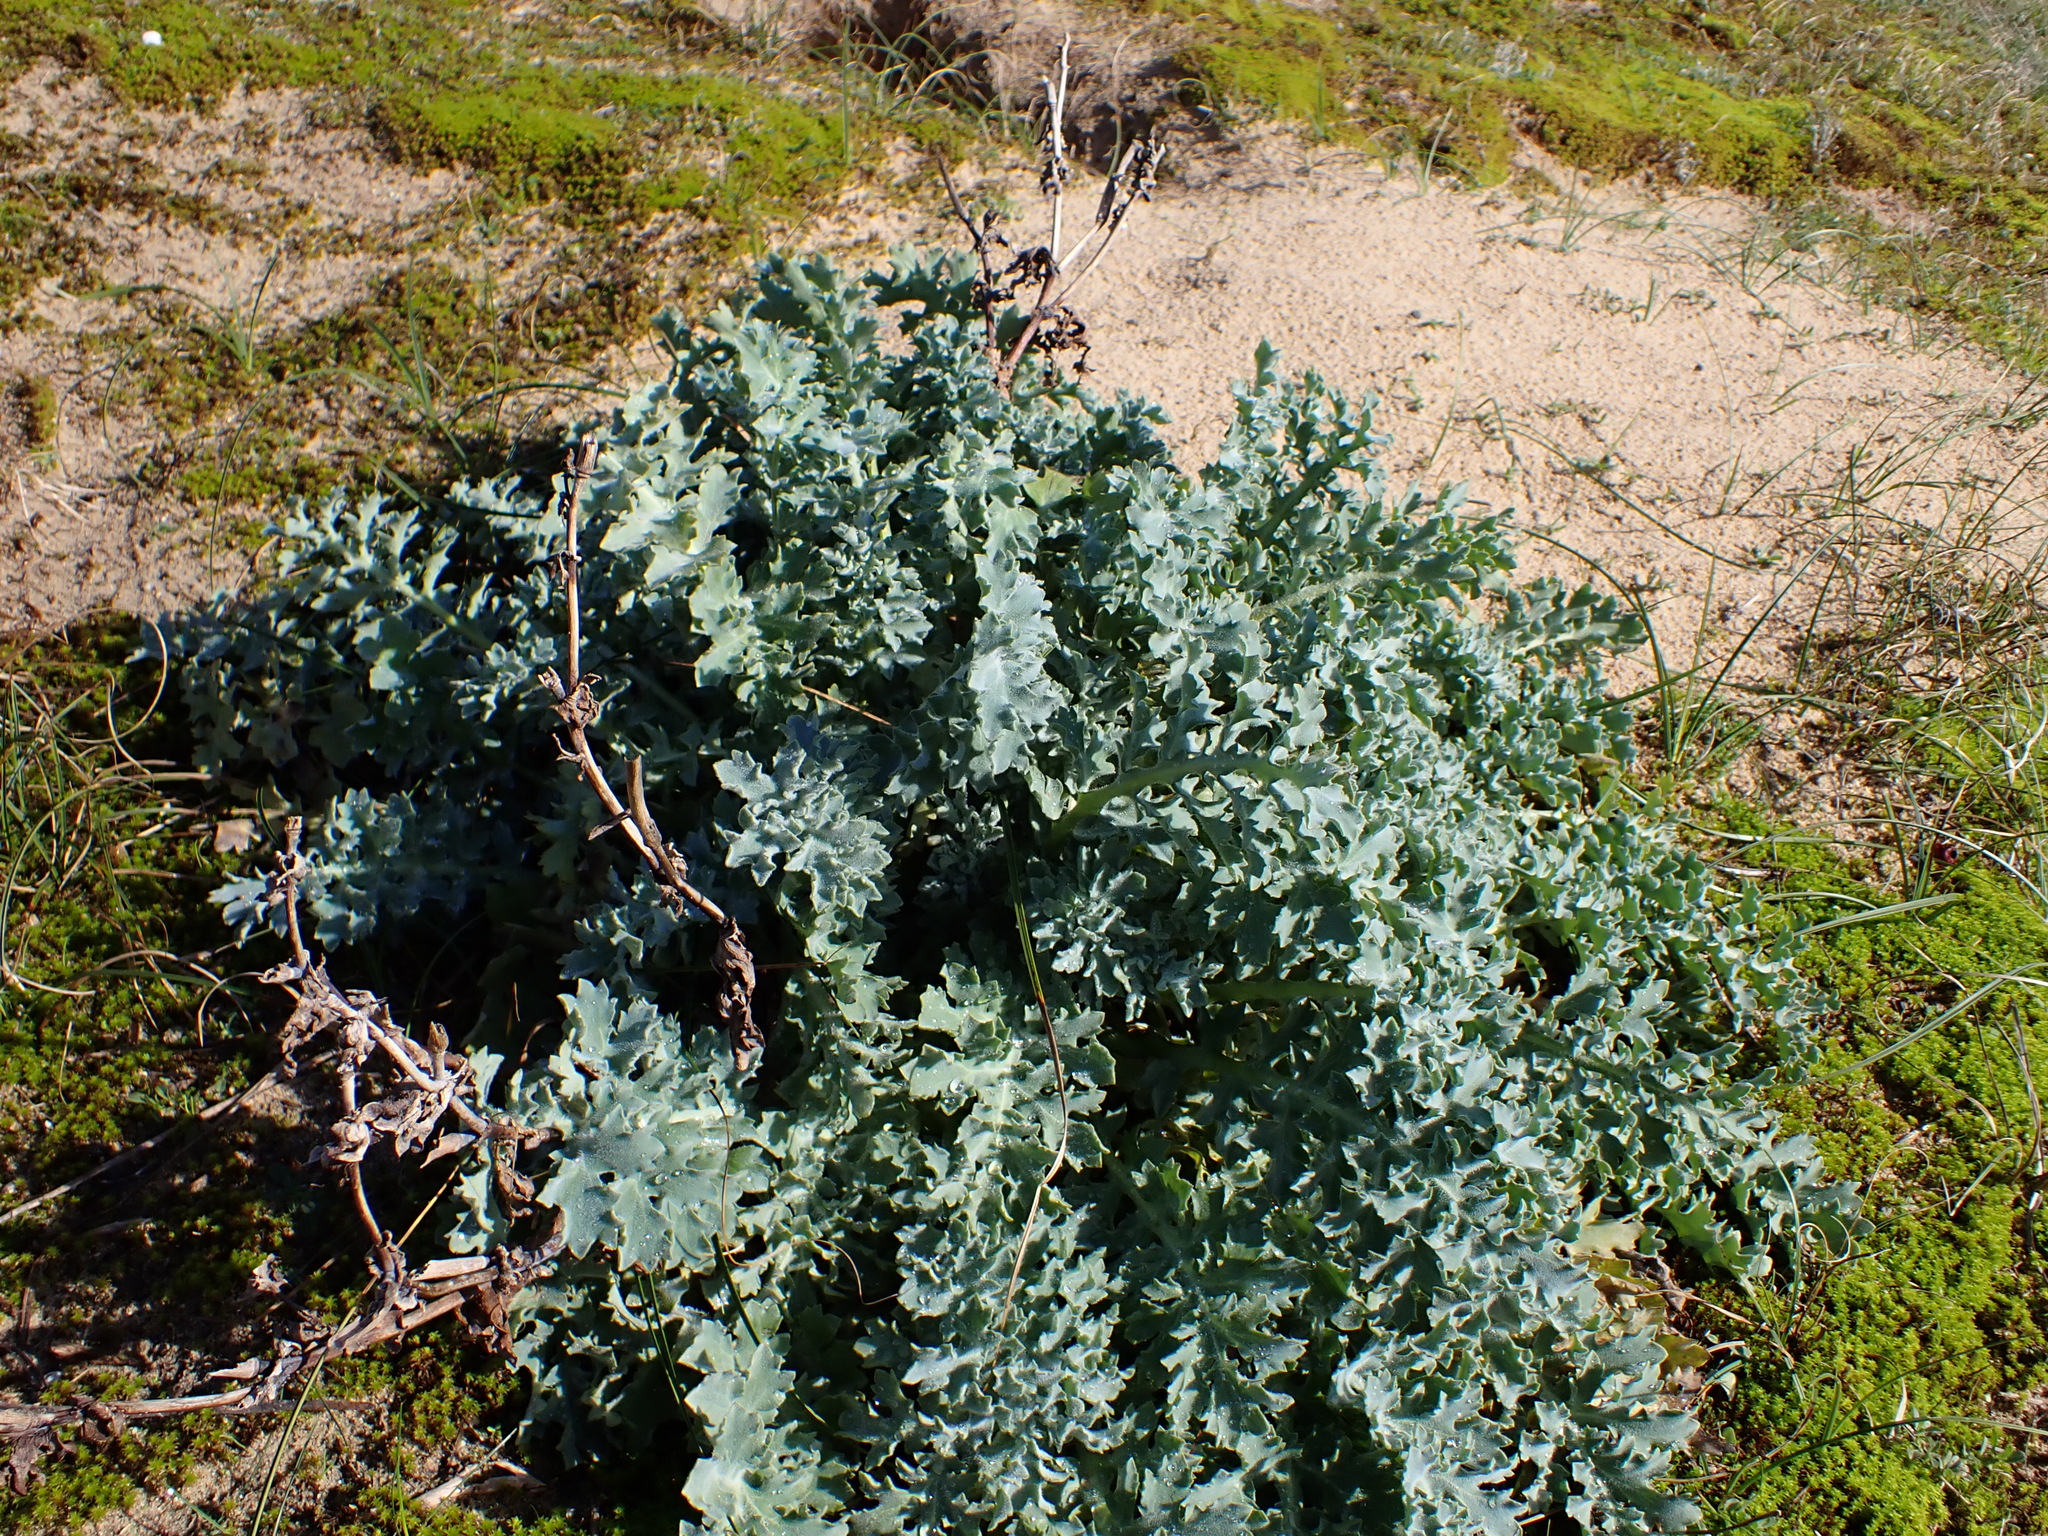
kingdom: Plantae
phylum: Tracheophyta
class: Magnoliopsida
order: Ranunculales
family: Papaveraceae
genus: Glaucium
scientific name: Glaucium flavum
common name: Yellow horned-poppy
